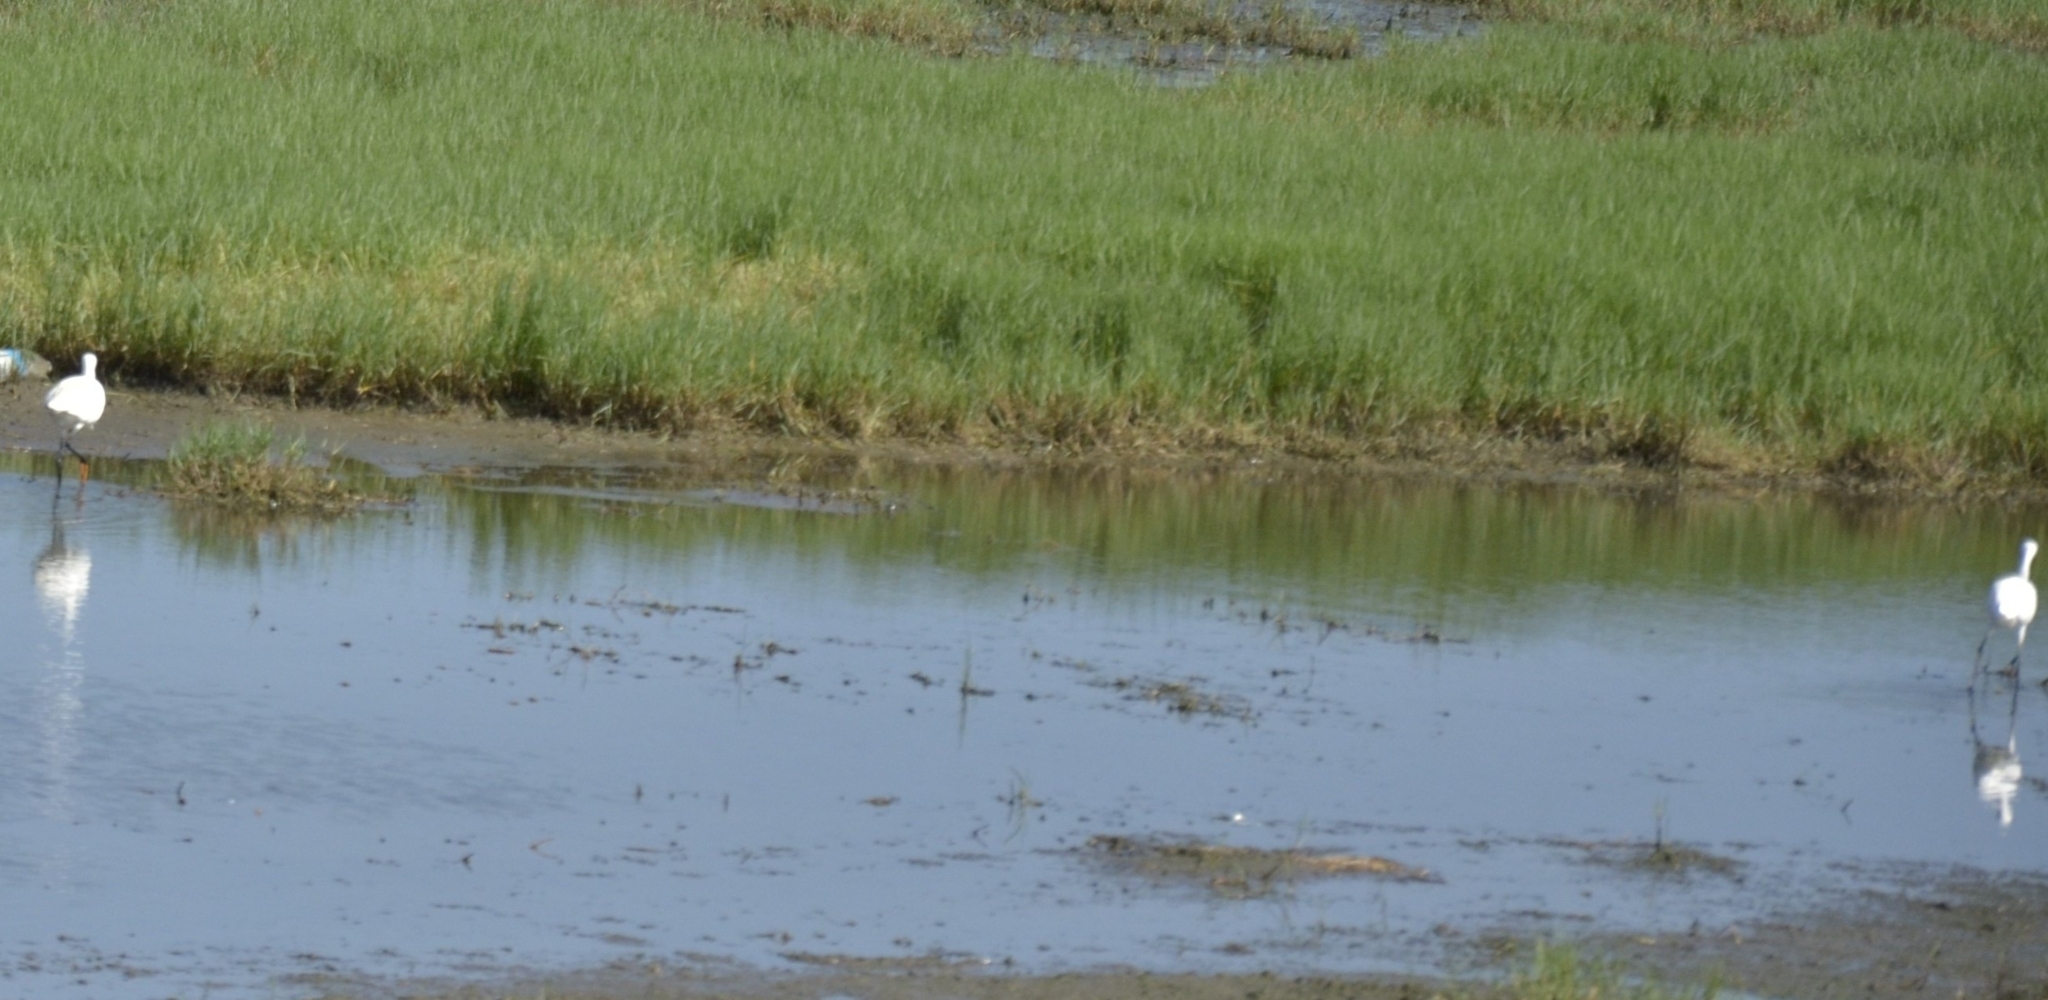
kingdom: Animalia
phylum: Chordata
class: Aves
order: Pelecaniformes
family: Ardeidae
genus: Egretta
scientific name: Egretta garzetta
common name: Little egret
